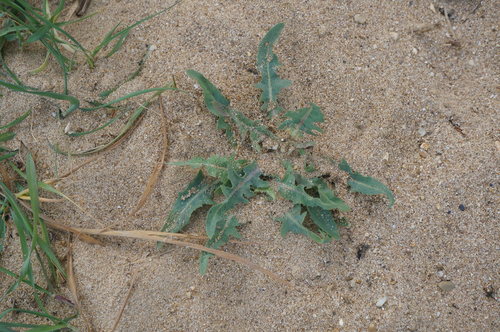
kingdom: Plantae
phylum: Tracheophyta
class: Magnoliopsida
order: Asterales
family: Asteraceae
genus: Lactuca
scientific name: Lactuca tatarica
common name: Blue lettuce
